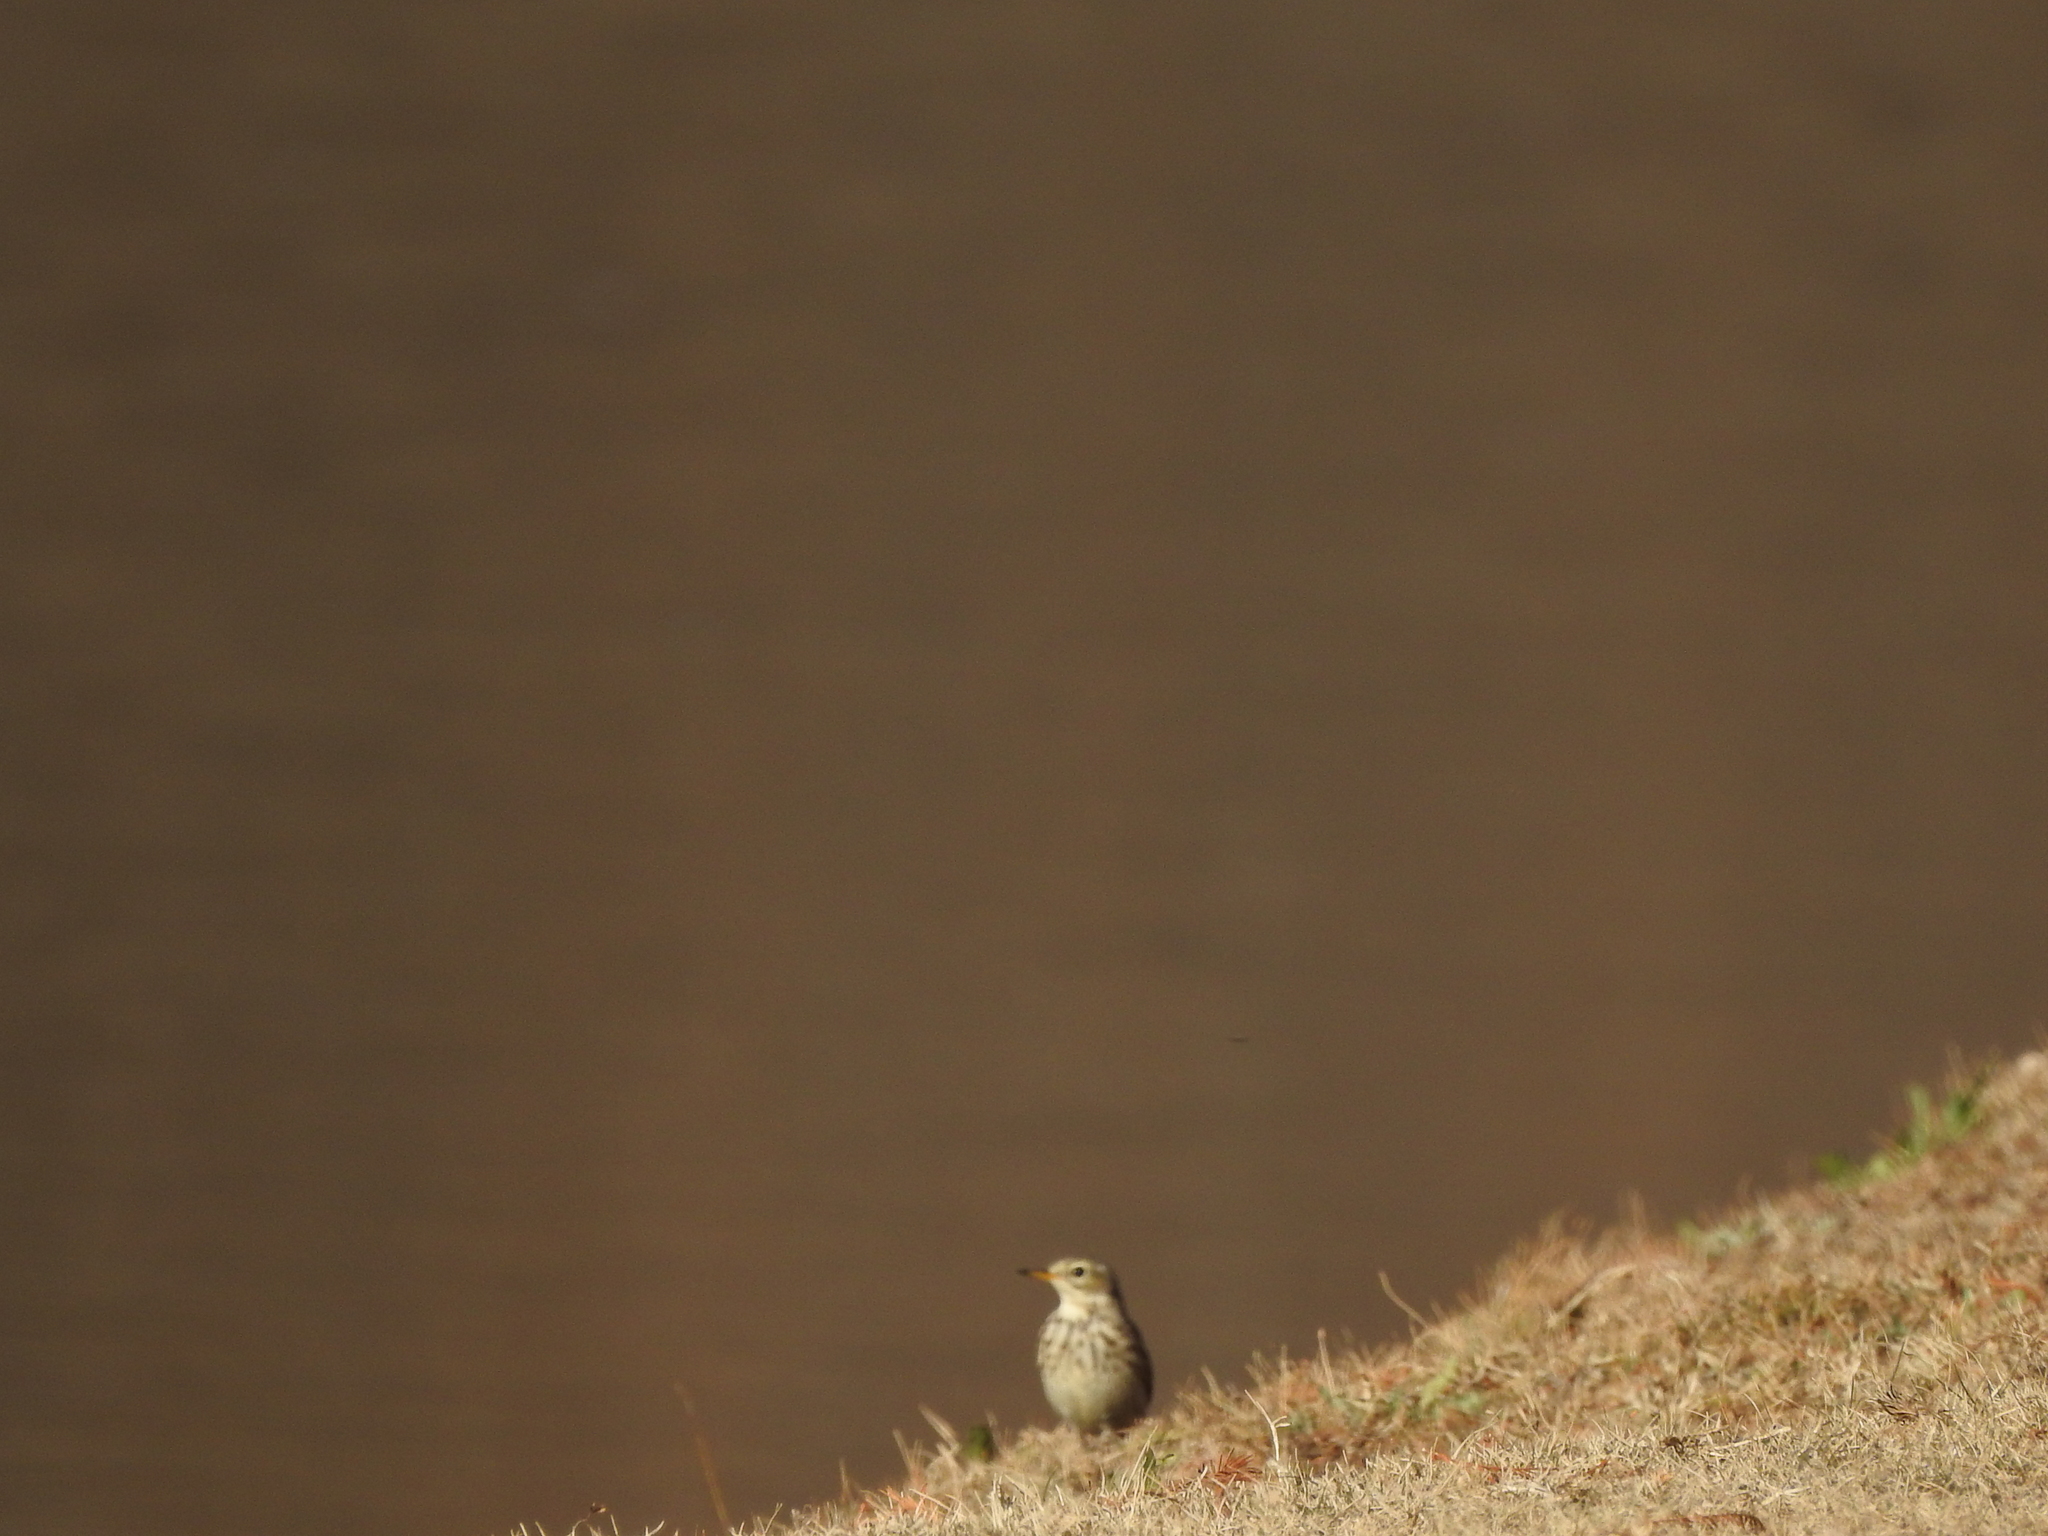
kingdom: Animalia
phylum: Chordata
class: Aves
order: Passeriformes
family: Motacillidae
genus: Anthus
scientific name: Anthus rubescens
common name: Buff-bellied pipit
